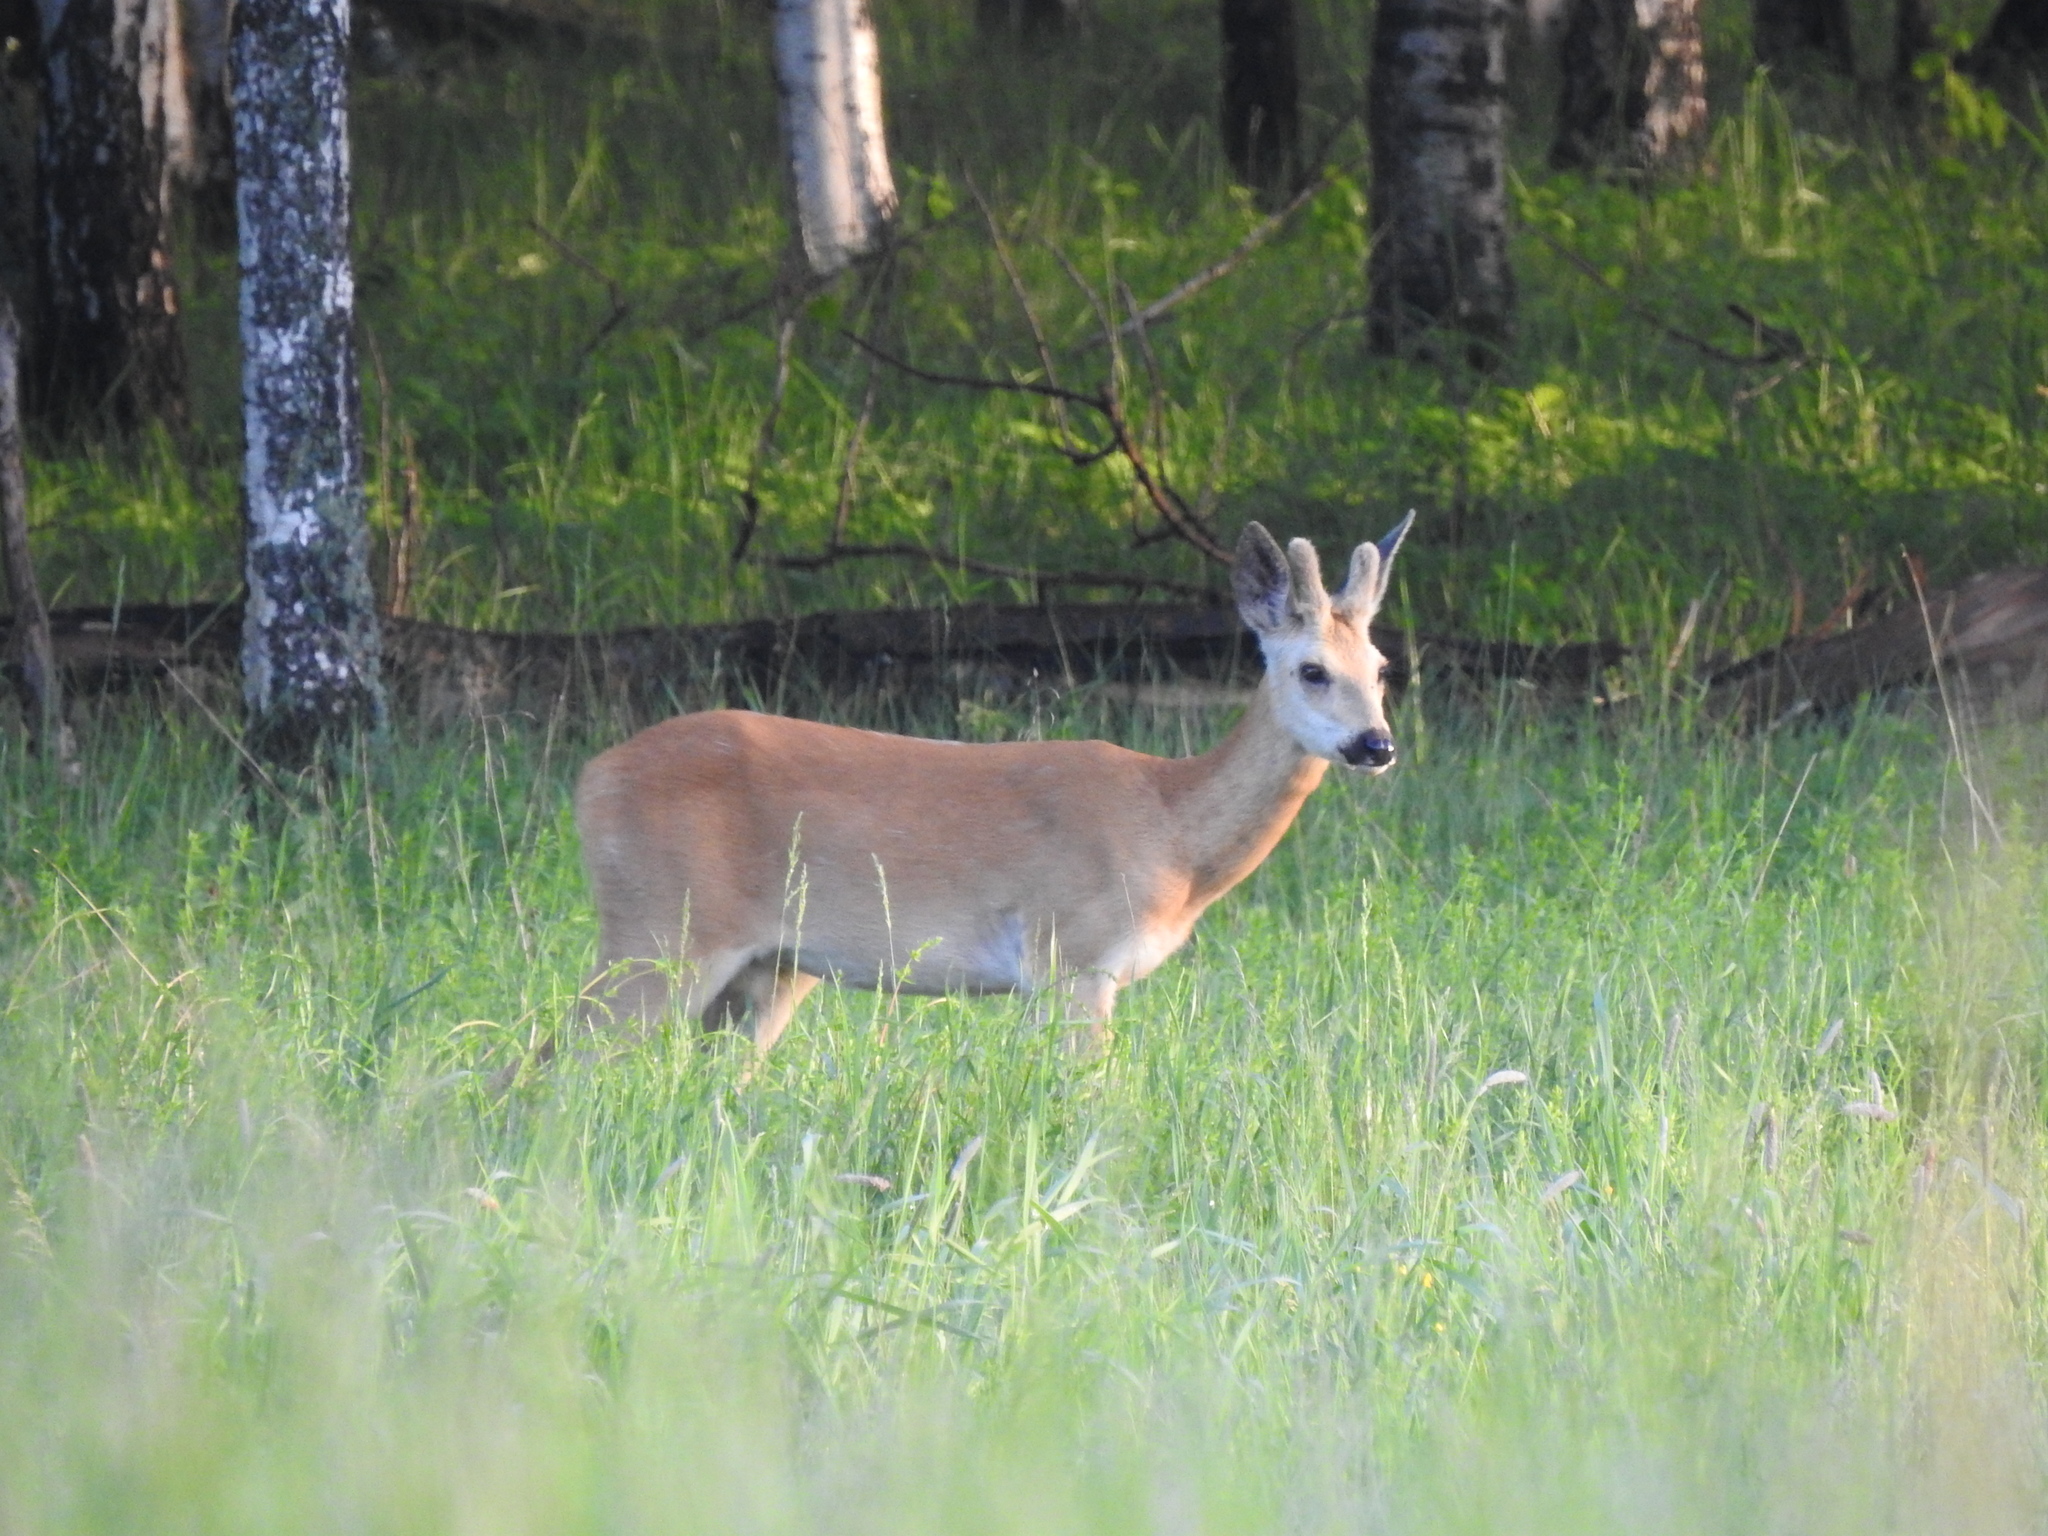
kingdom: Animalia
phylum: Chordata
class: Mammalia
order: Artiodactyla
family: Cervidae
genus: Capreolus
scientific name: Capreolus pygargus
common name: Siberian roe
